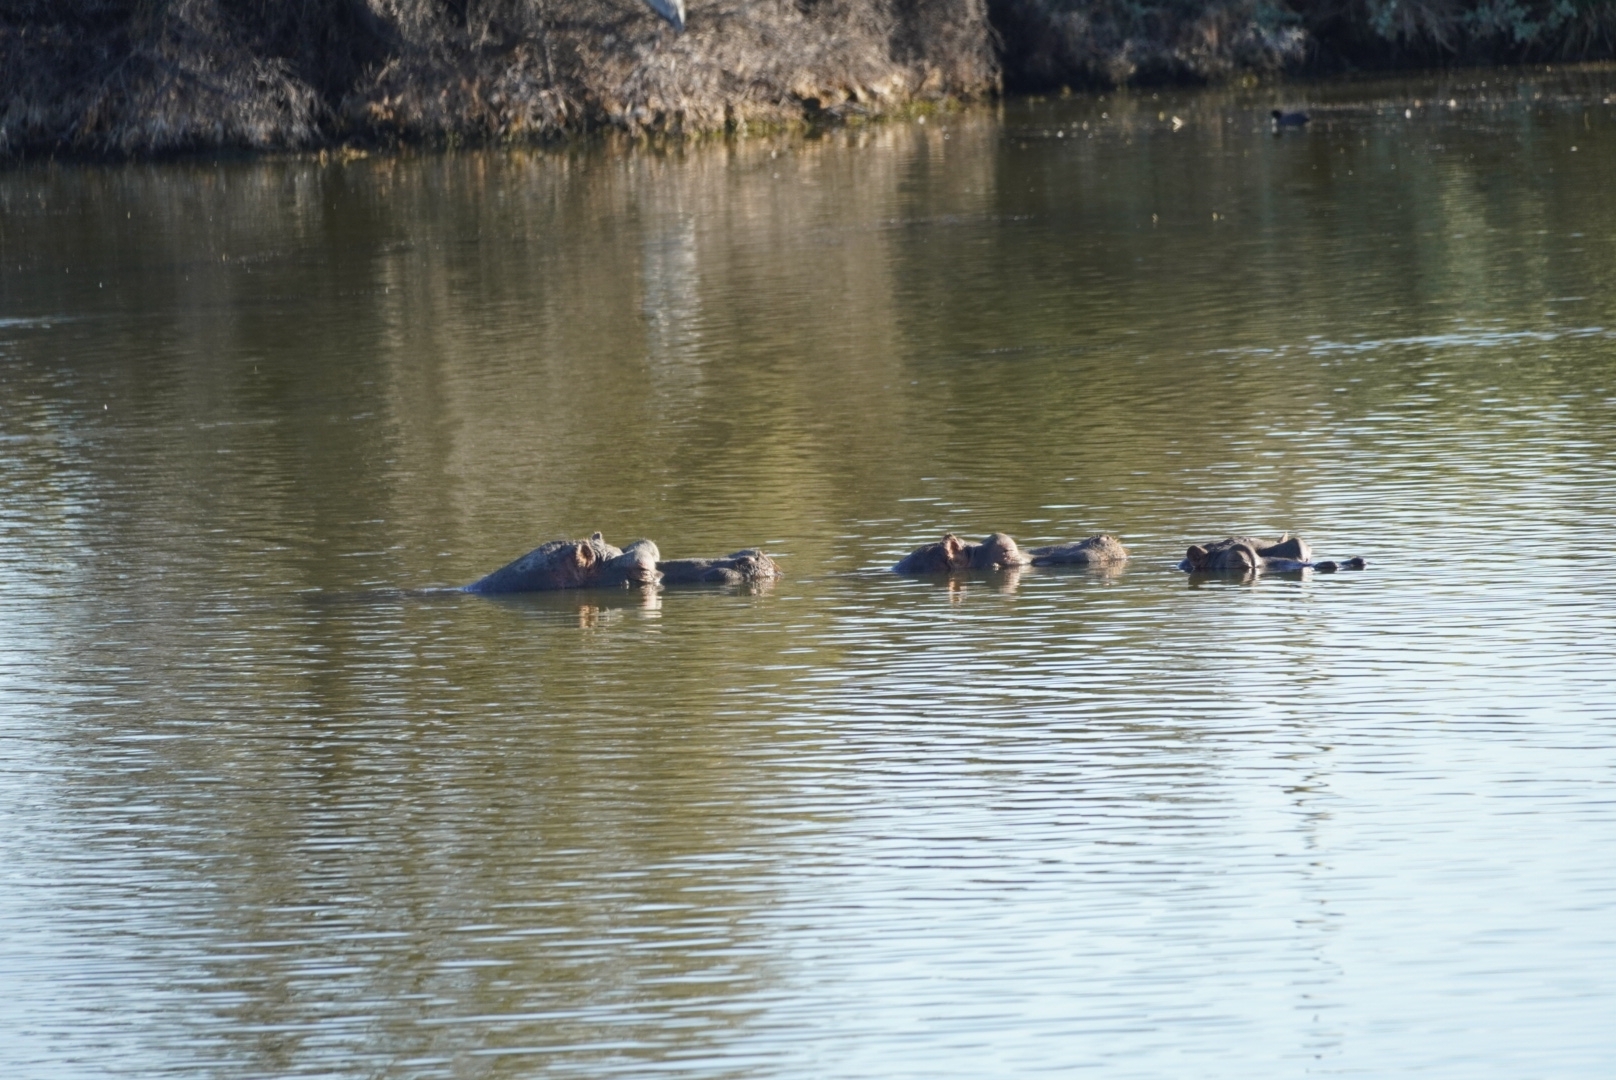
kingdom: Animalia
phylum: Chordata
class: Mammalia
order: Artiodactyla
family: Hippopotamidae
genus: Hippopotamus
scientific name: Hippopotamus amphibius
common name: Common hippopotamus
